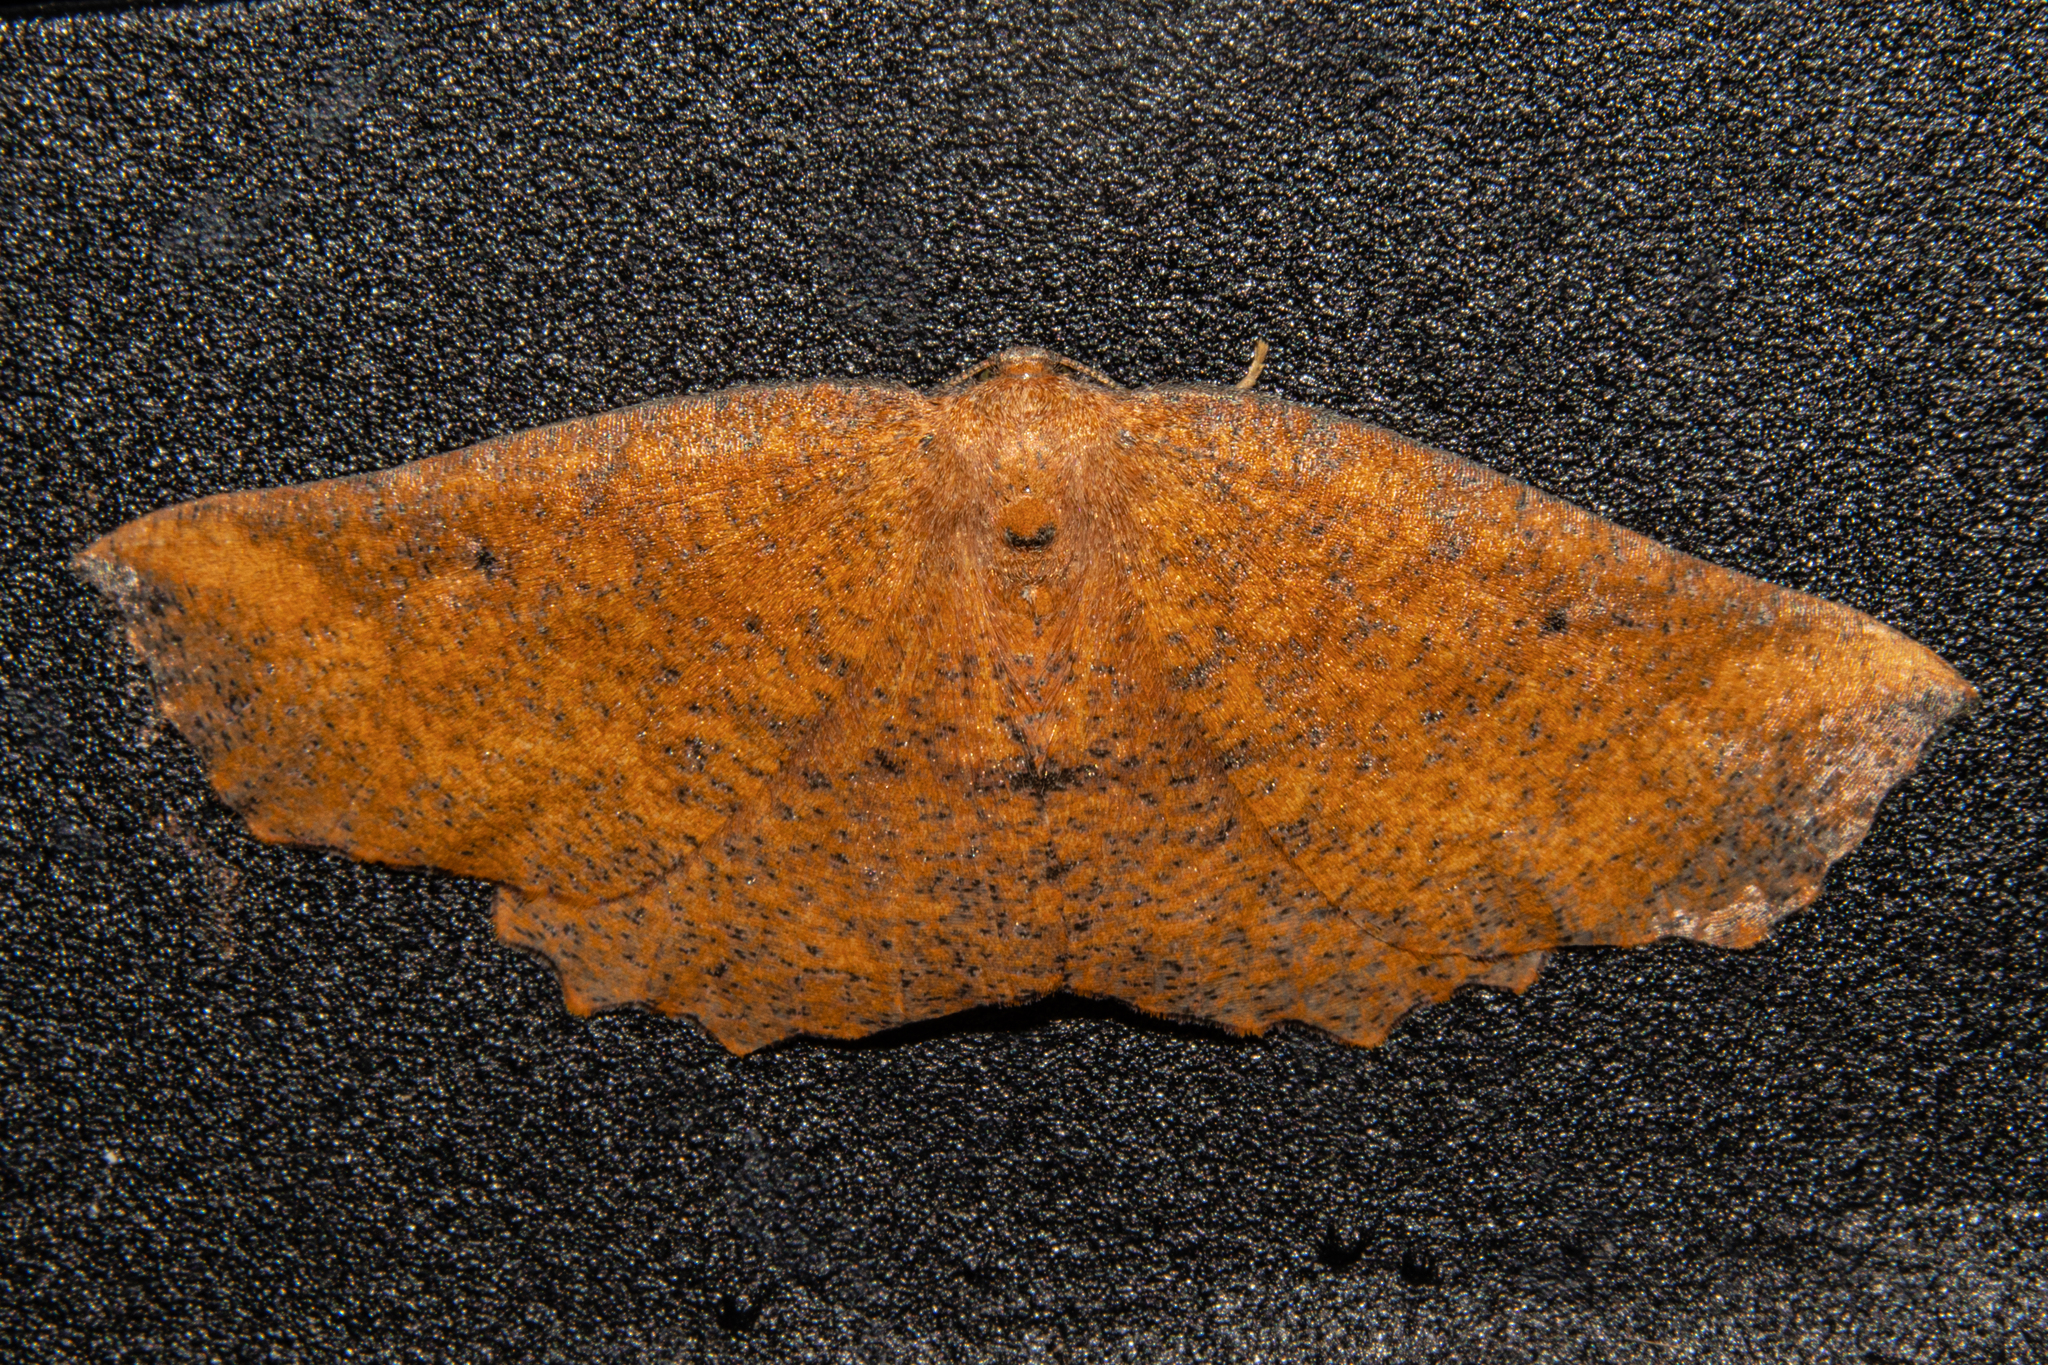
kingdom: Animalia
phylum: Arthropoda
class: Insecta
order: Lepidoptera
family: Geometridae
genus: Xyridacma
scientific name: Xyridacma ustaria
